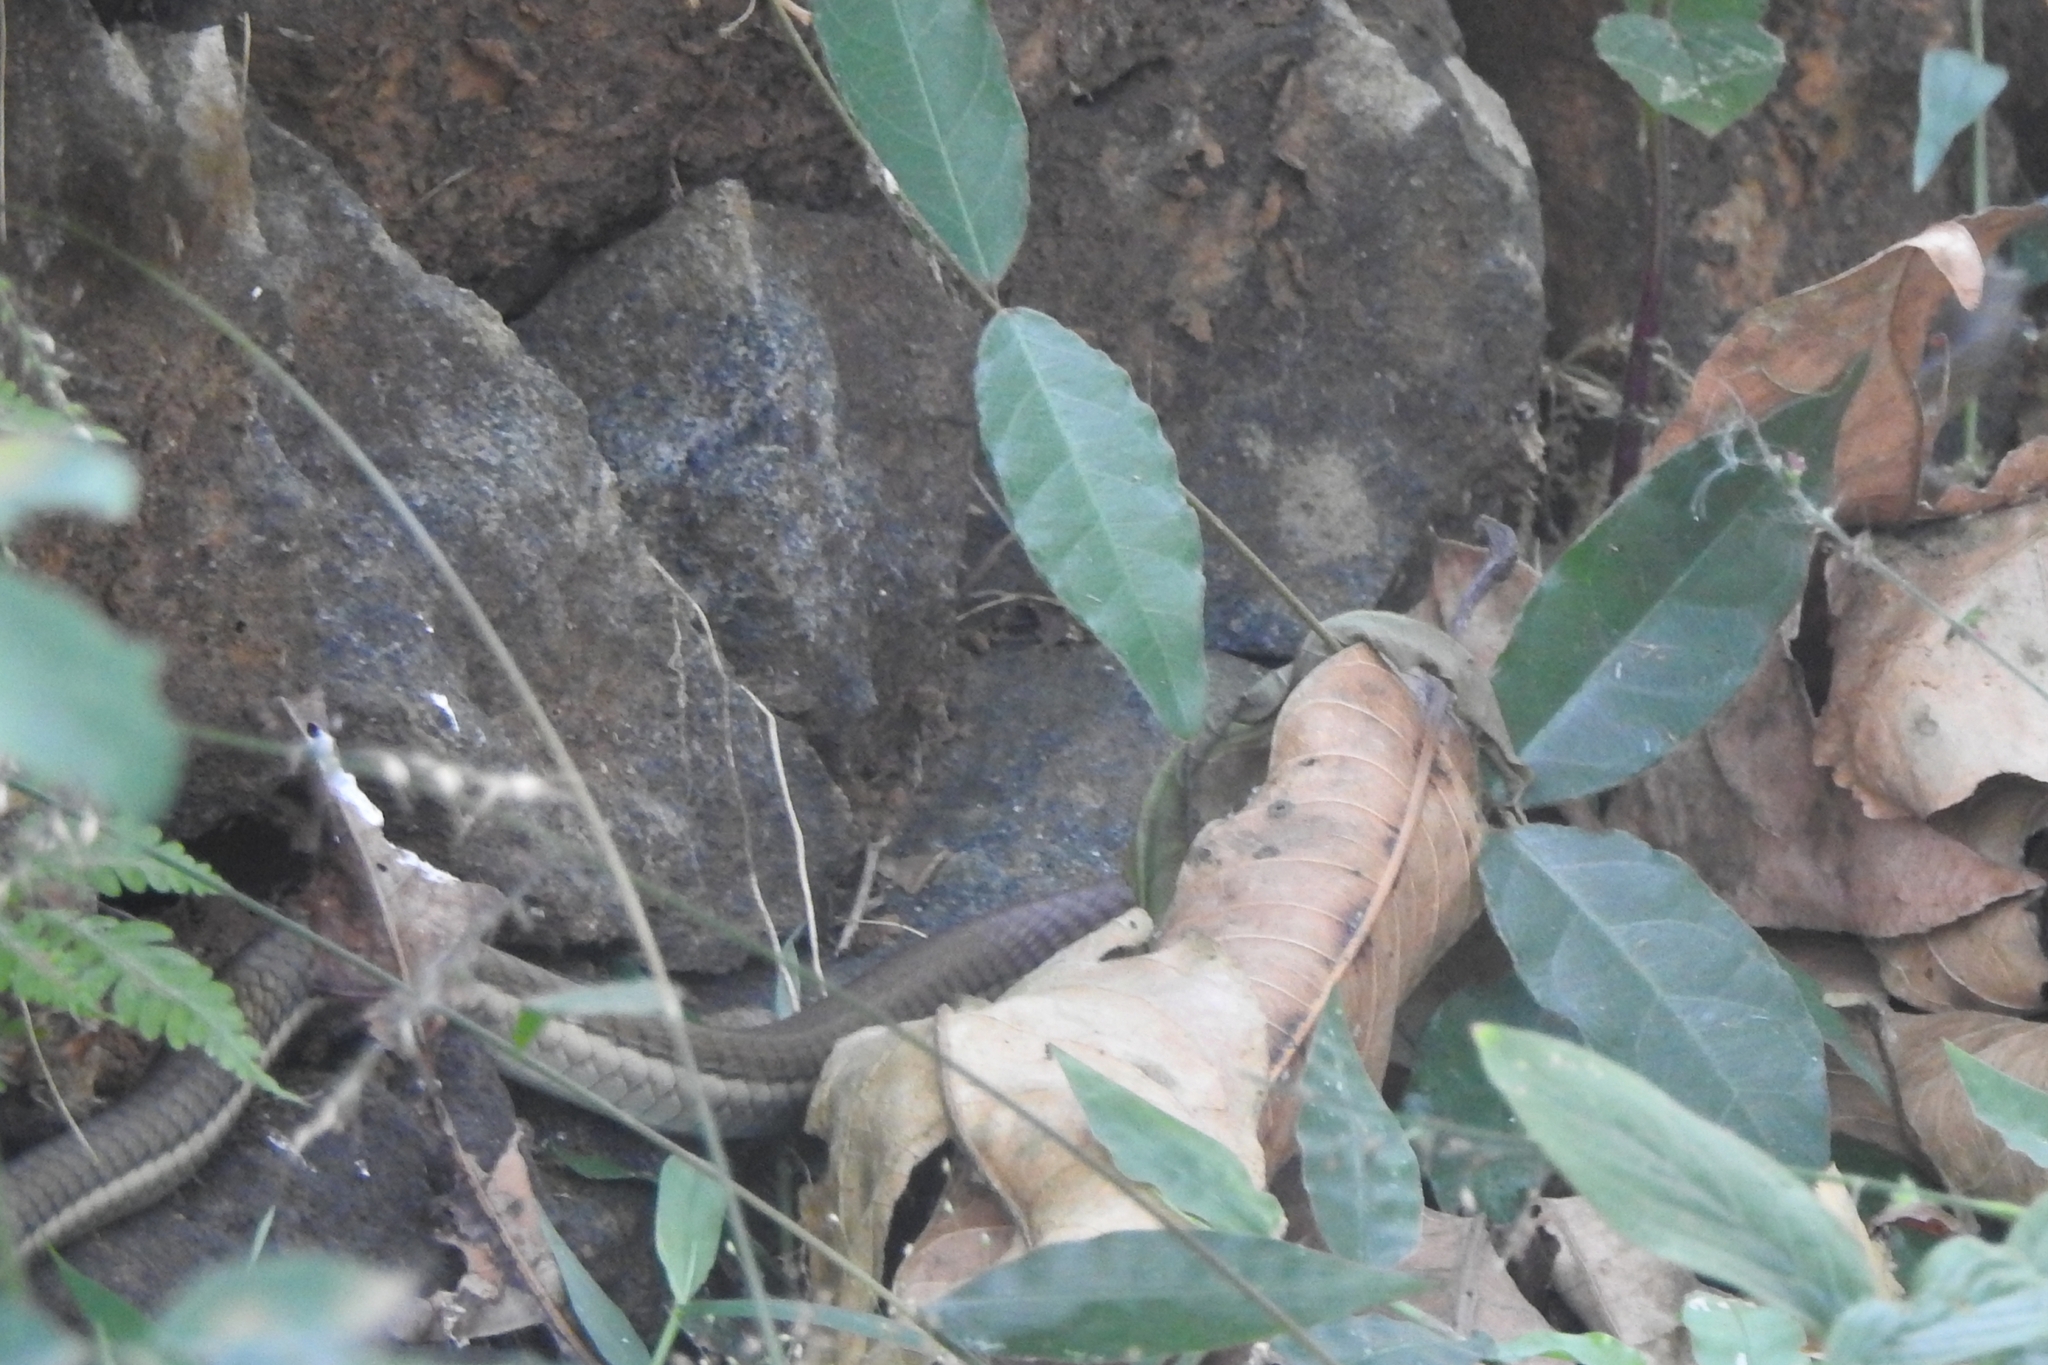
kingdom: Animalia
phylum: Chordata
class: Squamata
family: Colubridae
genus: Dendrelaphis
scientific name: Dendrelaphis chairecacos
